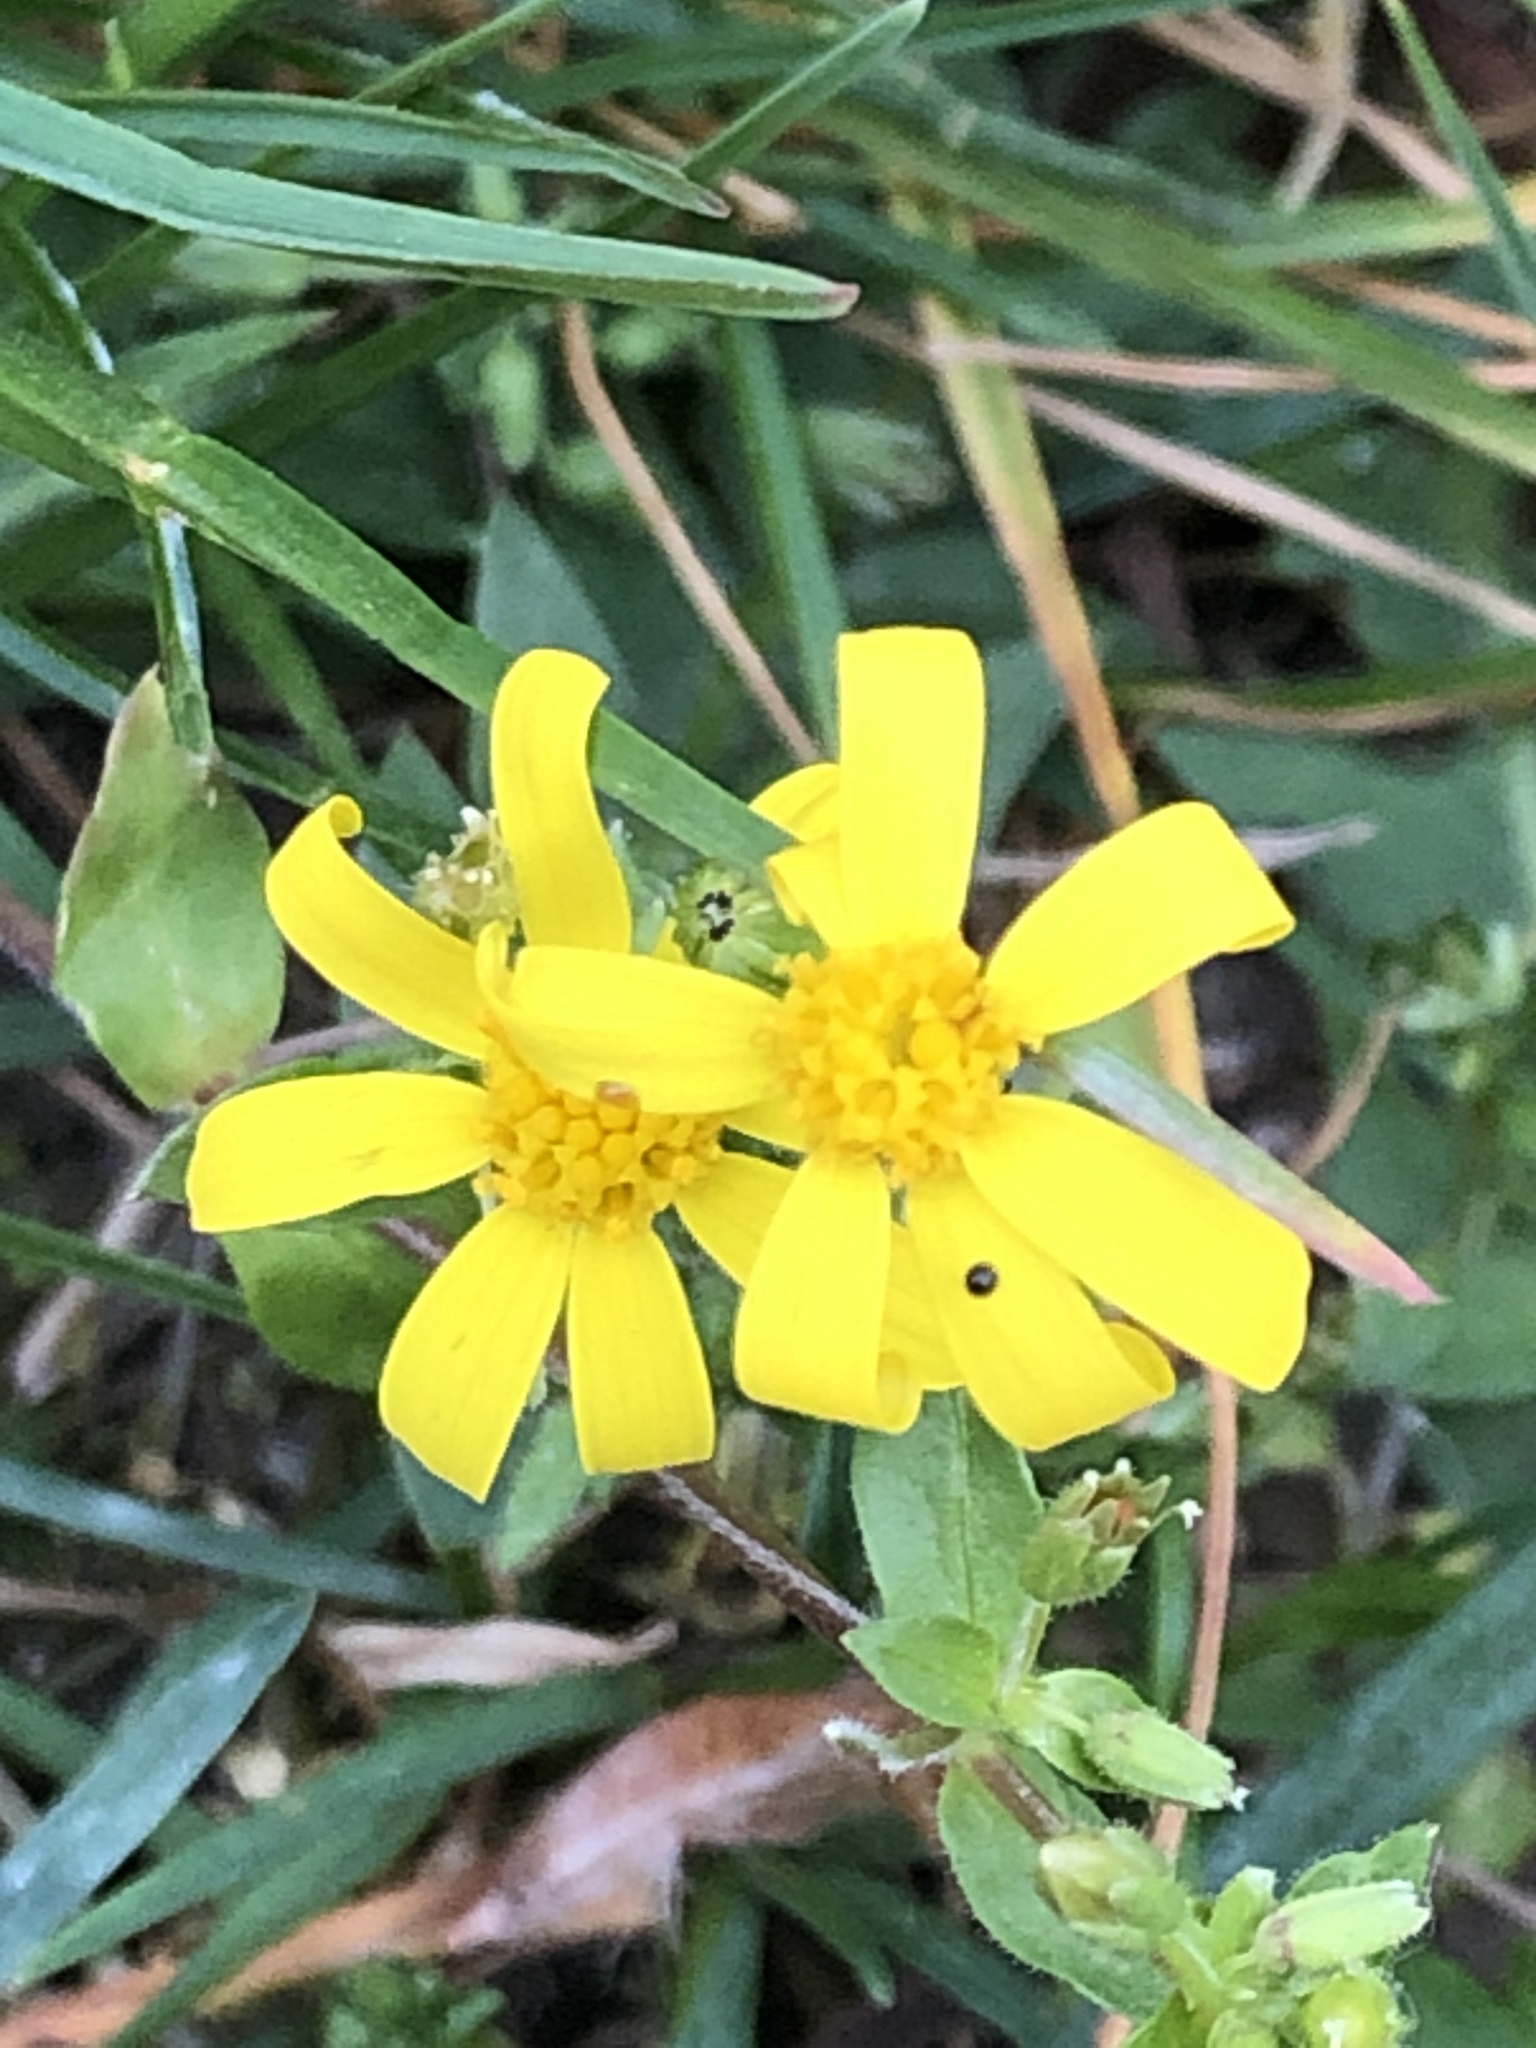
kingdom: Plantae
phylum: Tracheophyta
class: Magnoliopsida
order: Asterales
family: Asteraceae
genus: Senecio
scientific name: Senecio vernalis
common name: Eastern groundsel
